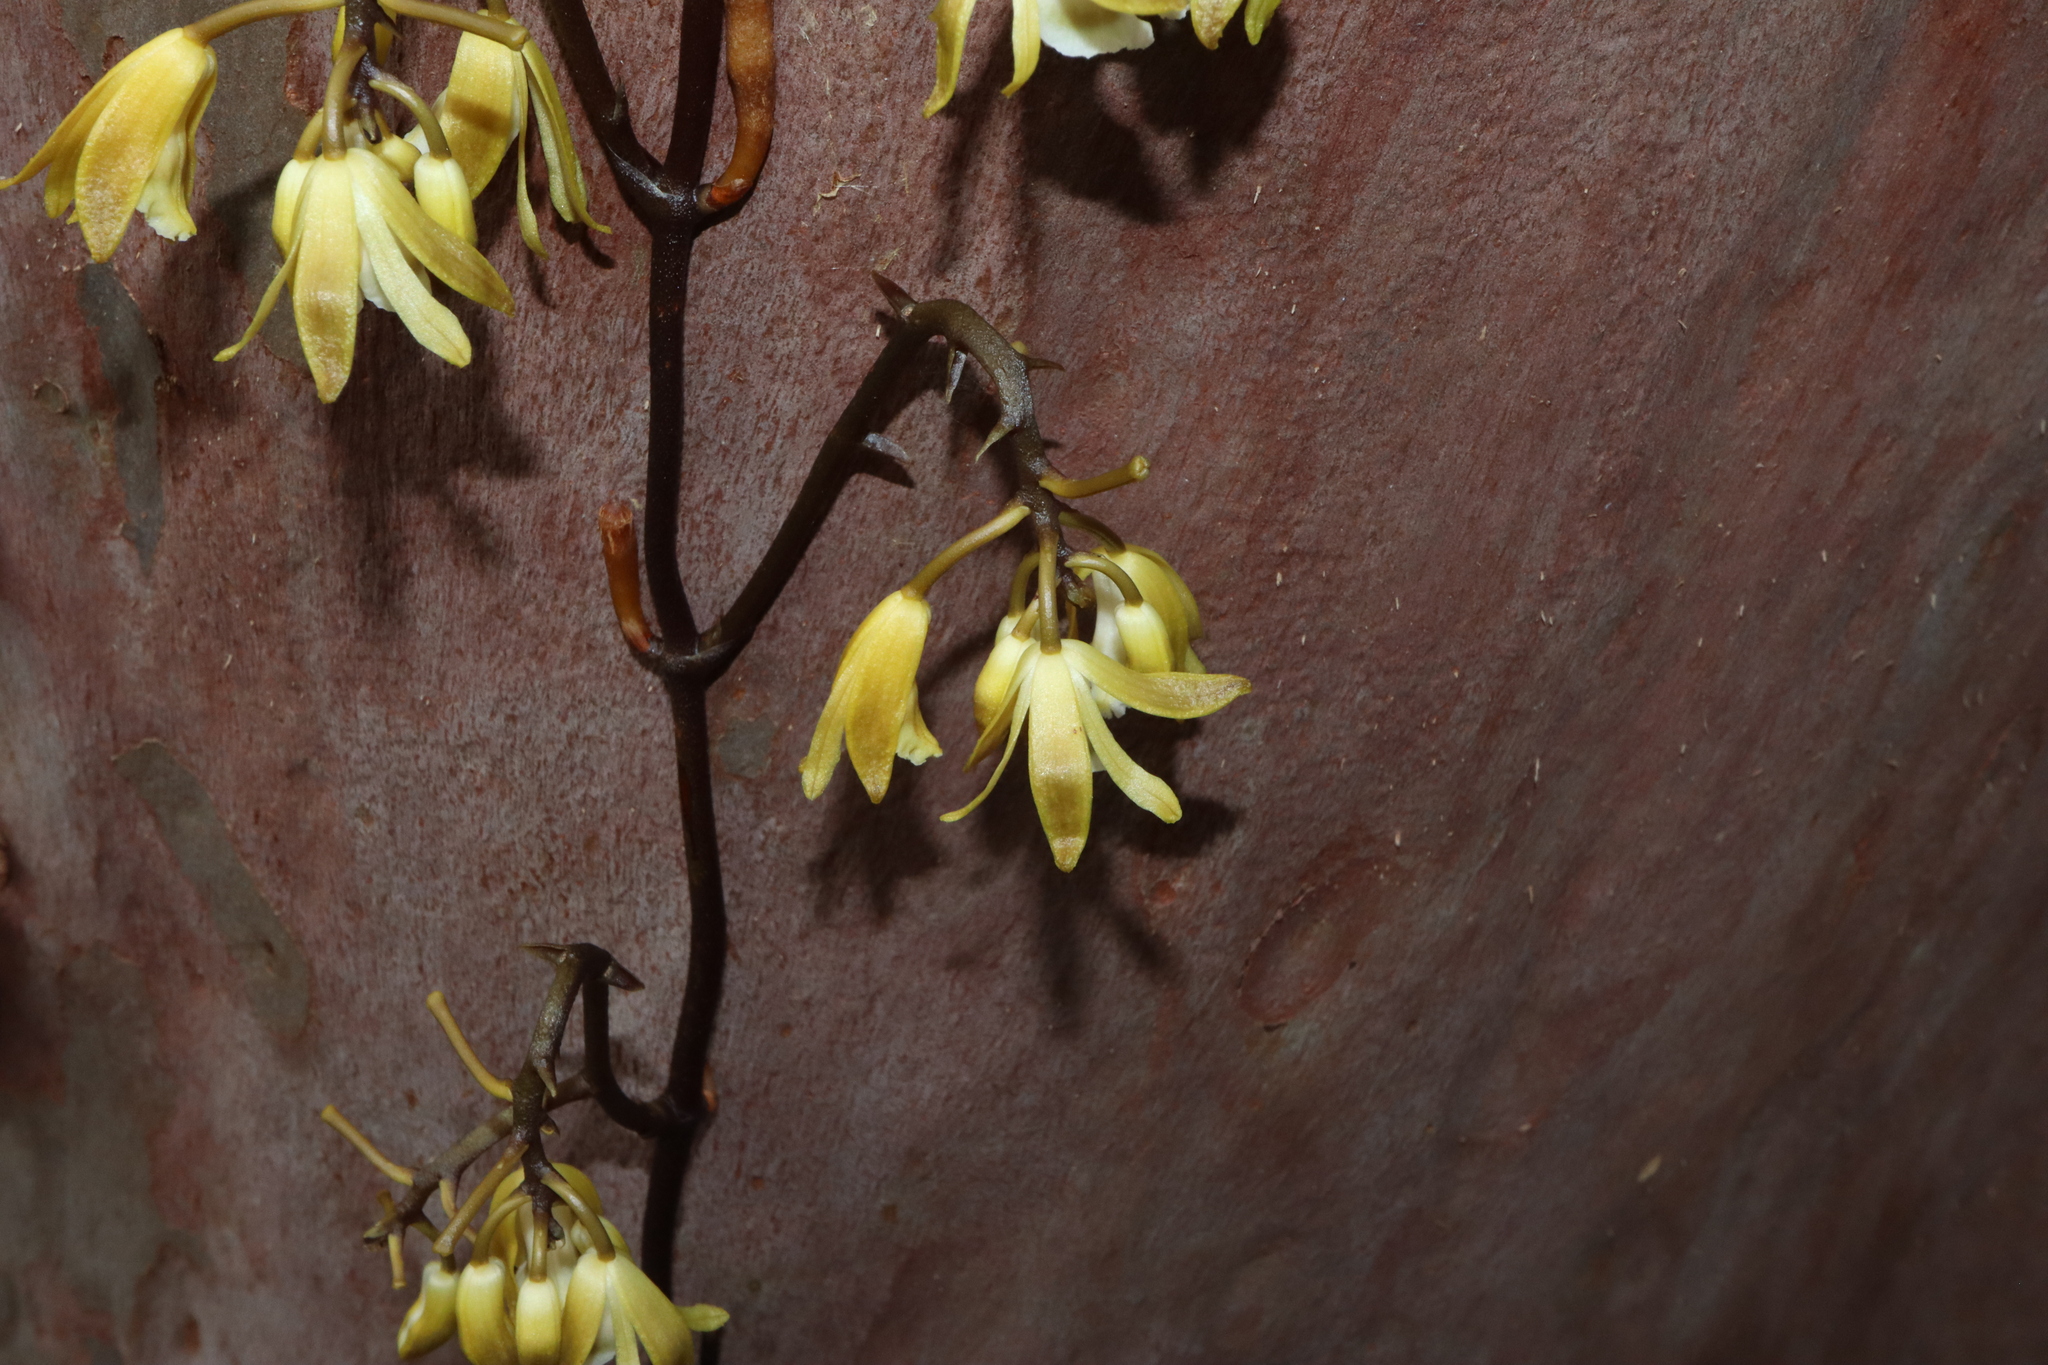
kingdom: Plantae
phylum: Tracheophyta
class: Liliopsida
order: Asparagales
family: Orchidaceae
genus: Erythrorchis
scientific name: Erythrorchis cassythoides
